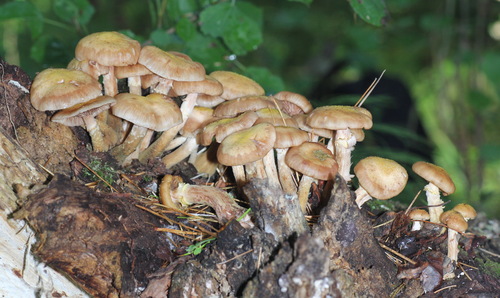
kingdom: Fungi
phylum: Basidiomycota
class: Agaricomycetes
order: Agaricales
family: Physalacriaceae
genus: Armillaria
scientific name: Armillaria cepistipes
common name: Mullet honey fungus
